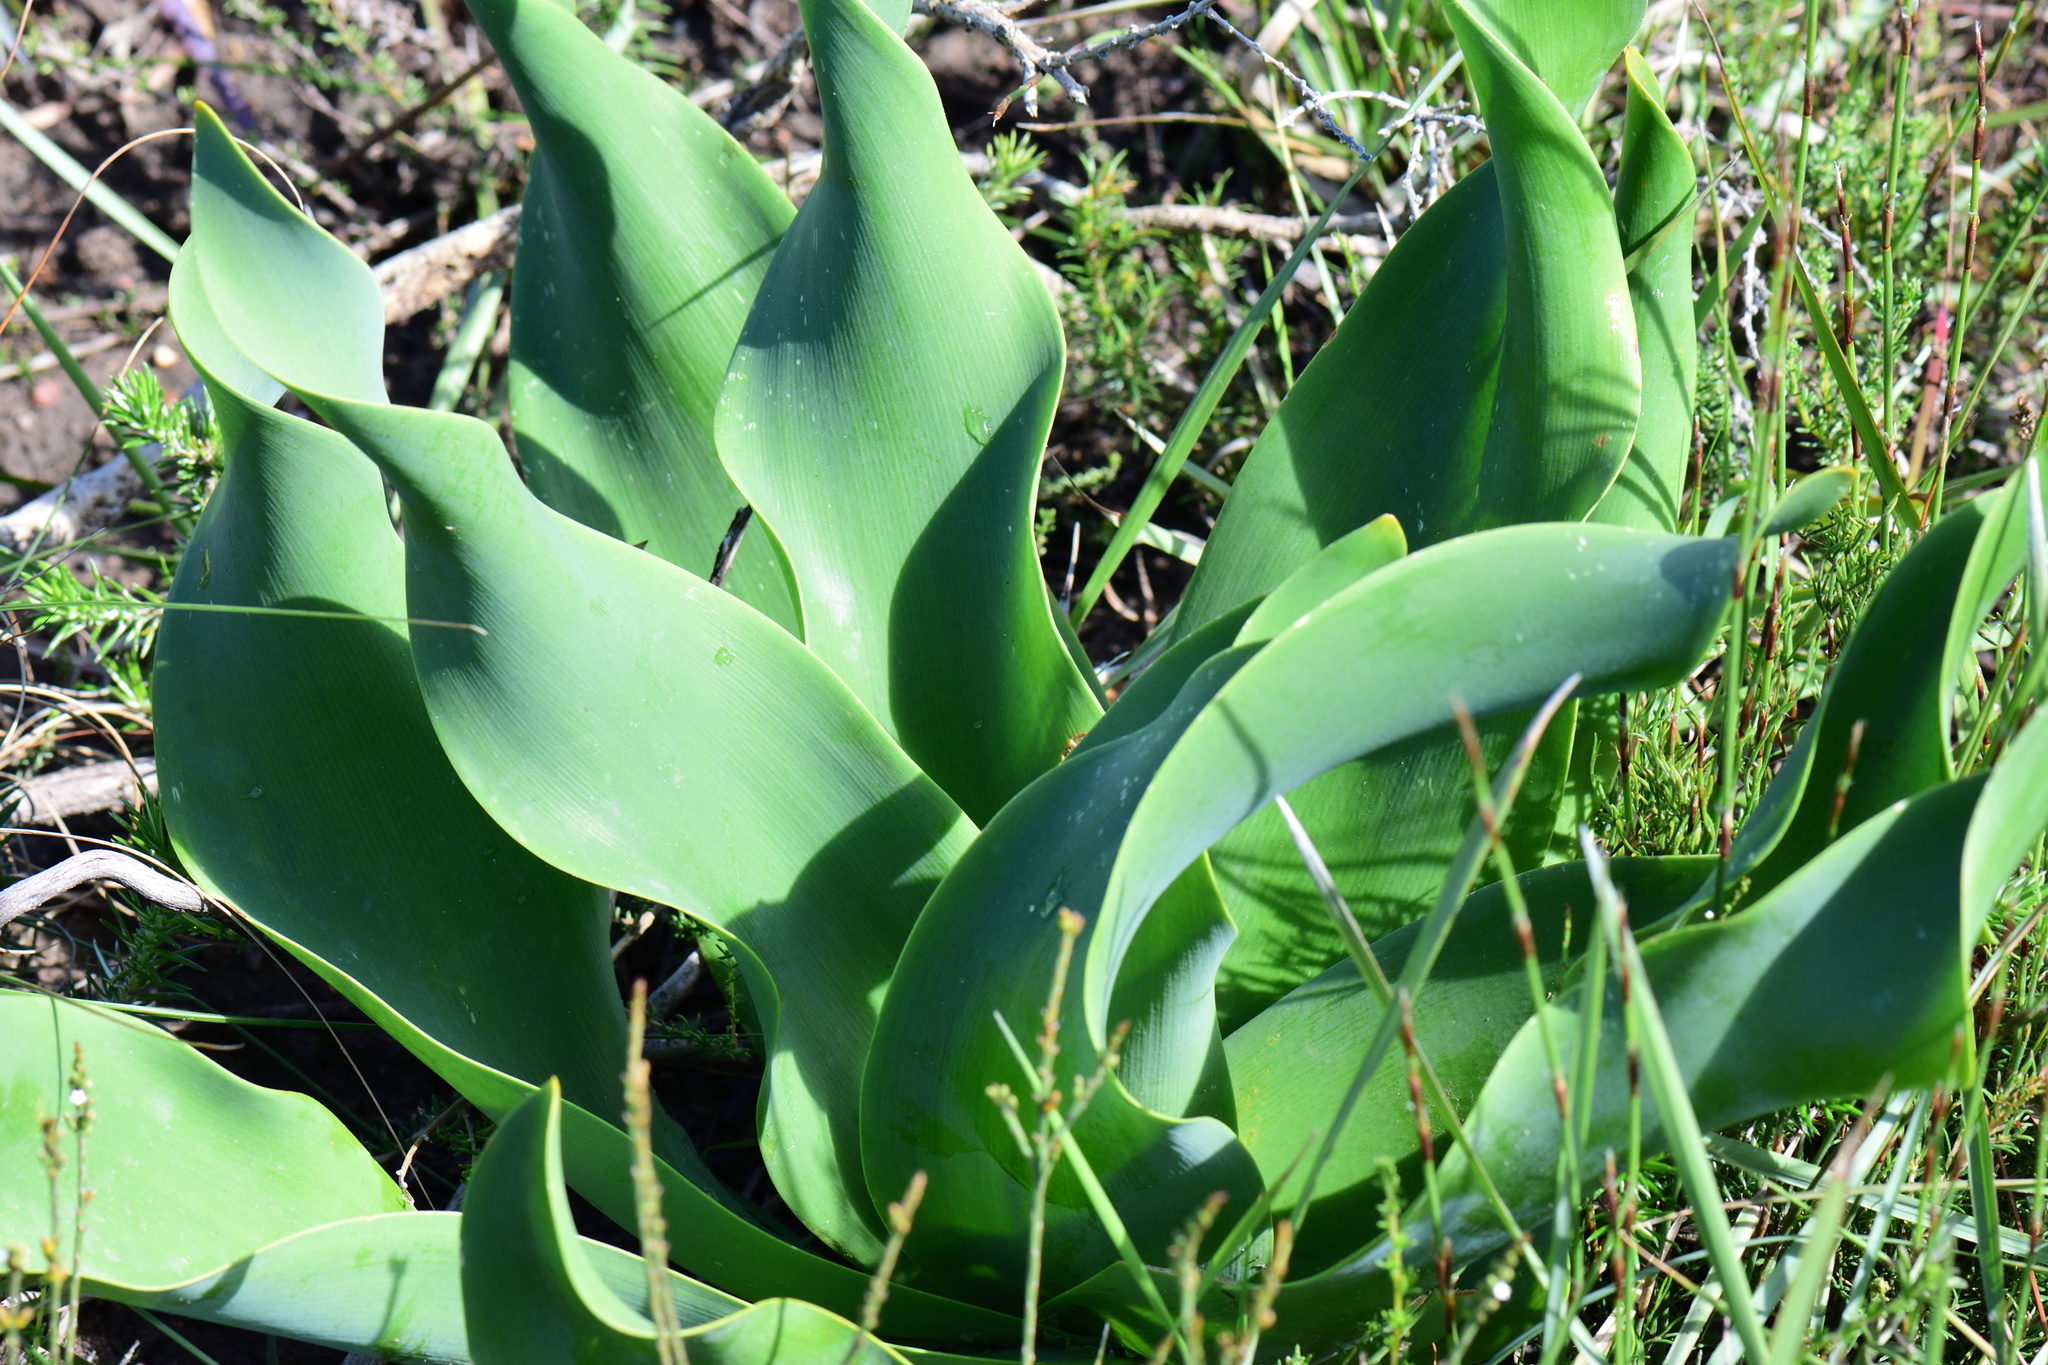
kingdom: Plantae
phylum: Tracheophyta
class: Liliopsida
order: Asparagales
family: Amaryllidaceae
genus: Brunsvigia
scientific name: Brunsvigia litoralis
